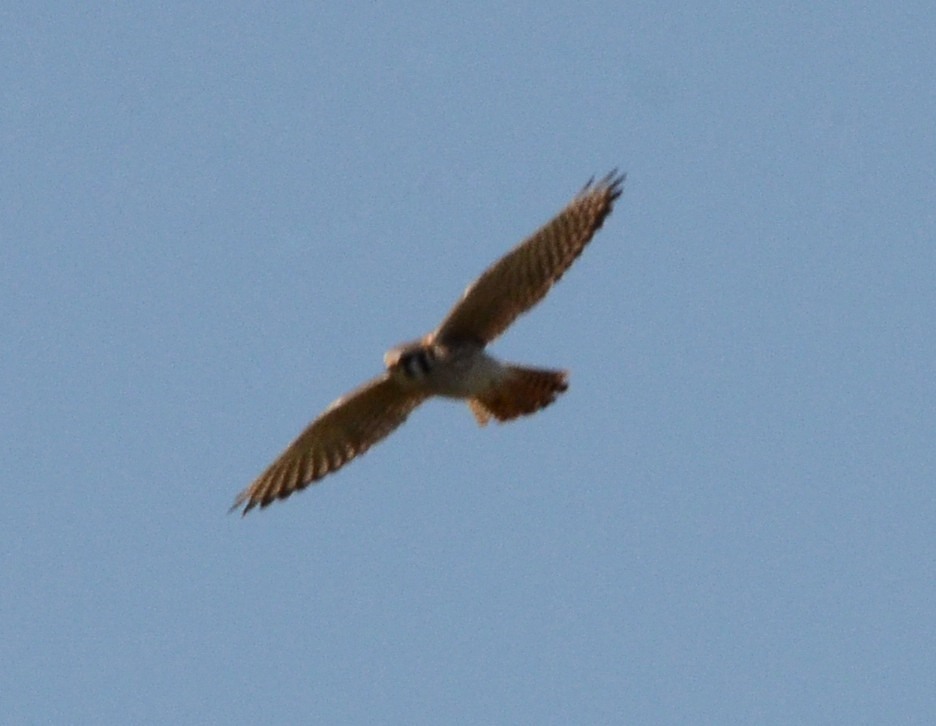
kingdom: Animalia
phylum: Chordata
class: Aves
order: Falconiformes
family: Falconidae
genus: Falco
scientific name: Falco sparverius
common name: American kestrel
